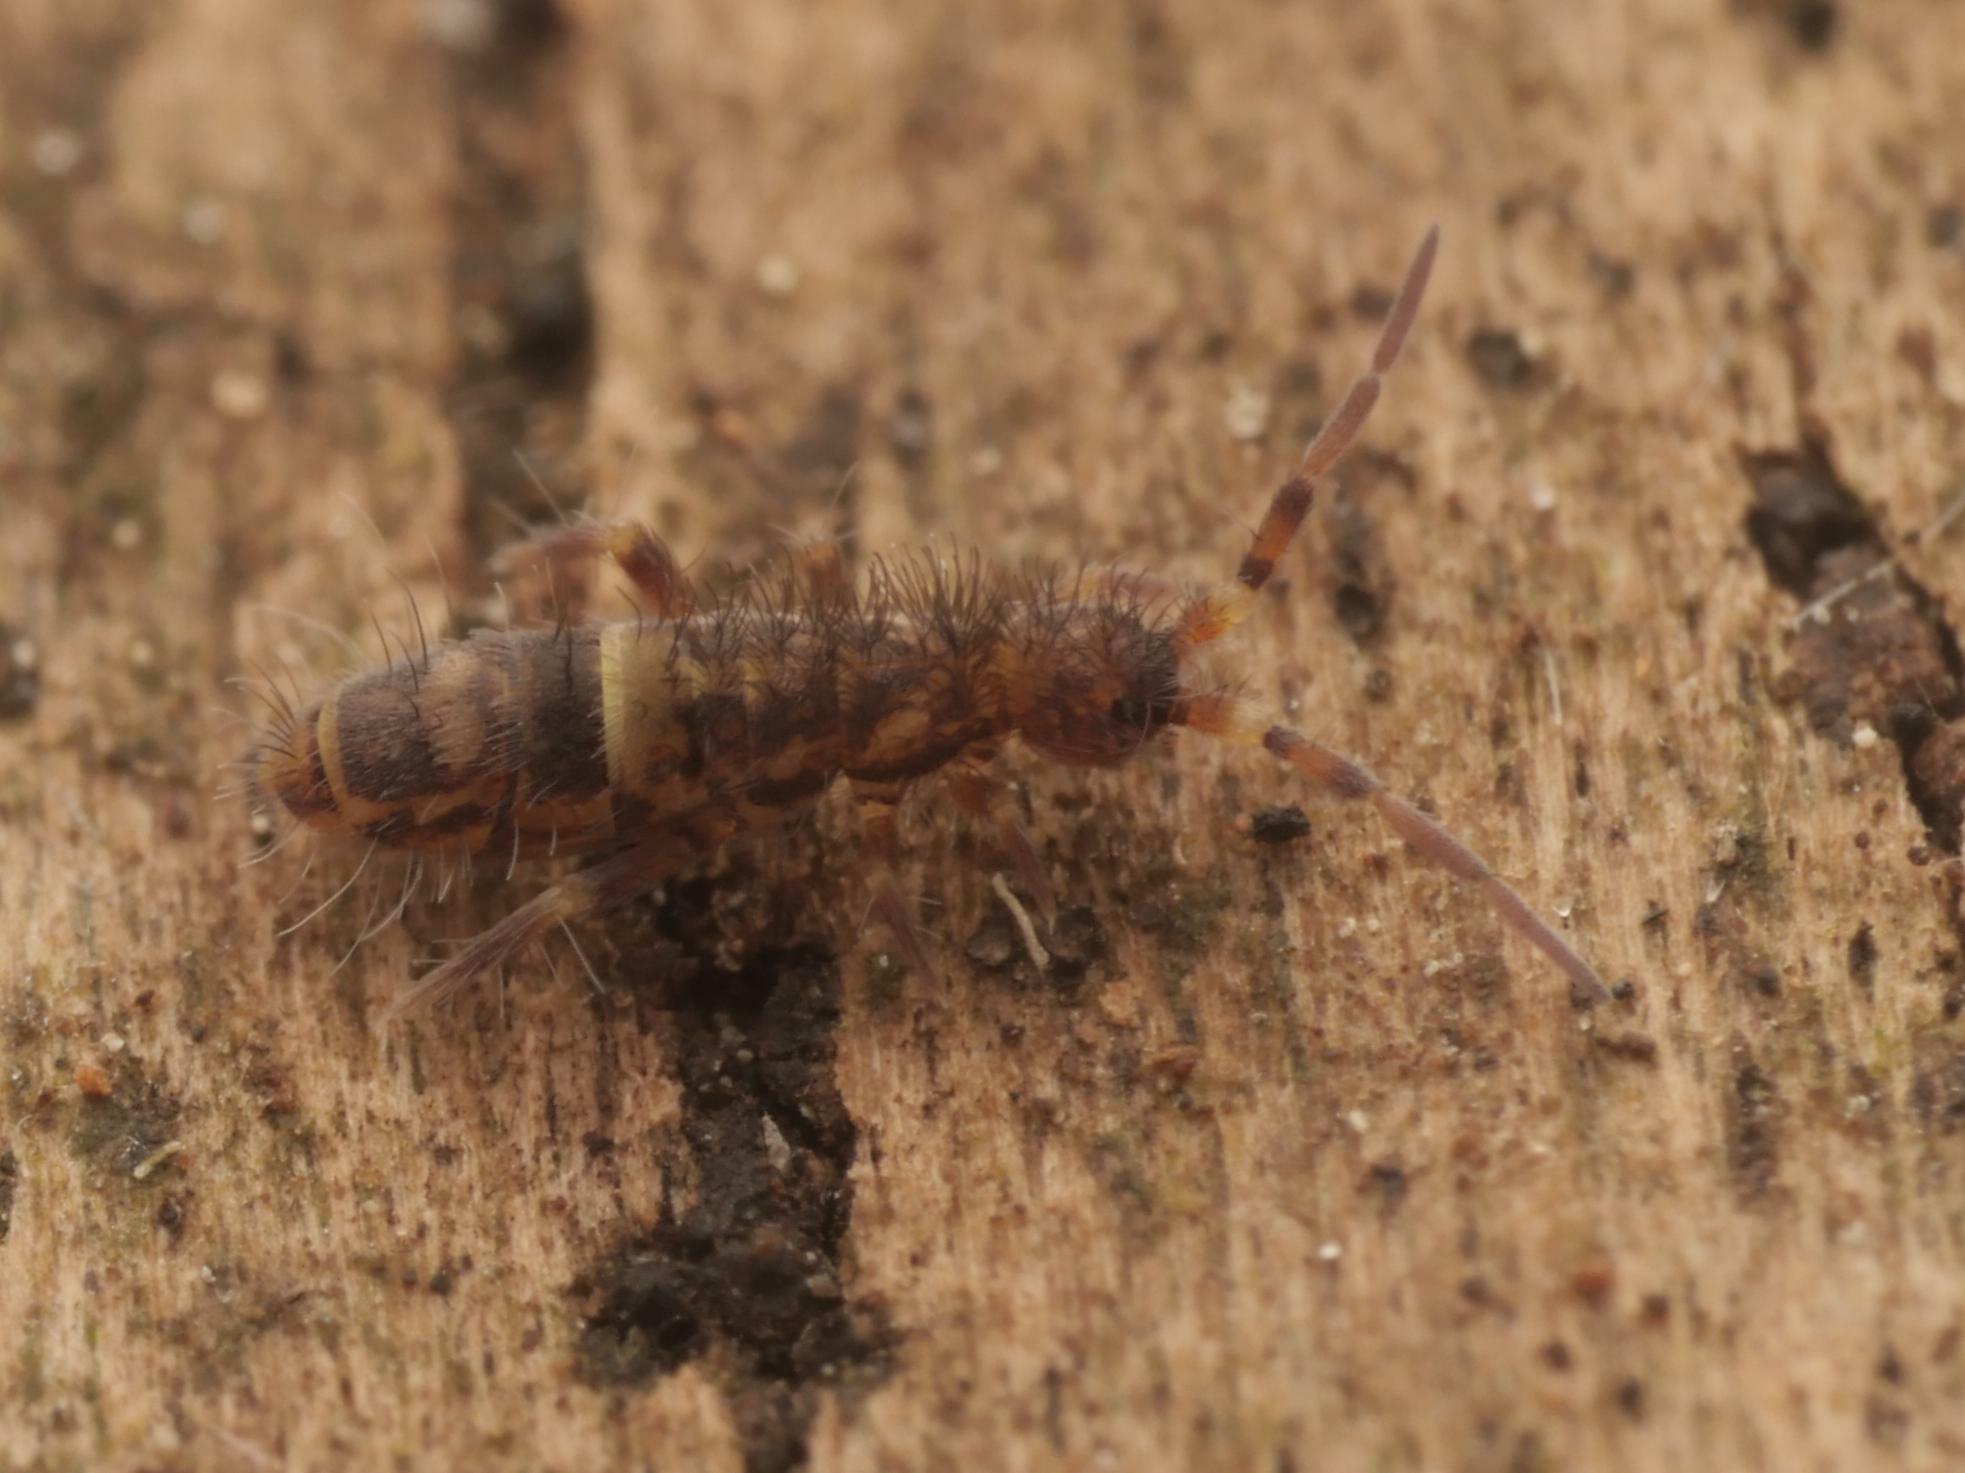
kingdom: Animalia
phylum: Arthropoda
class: Collembola
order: Entomobryomorpha
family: Orchesellidae
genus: Orchesella
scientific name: Orchesella cincta
